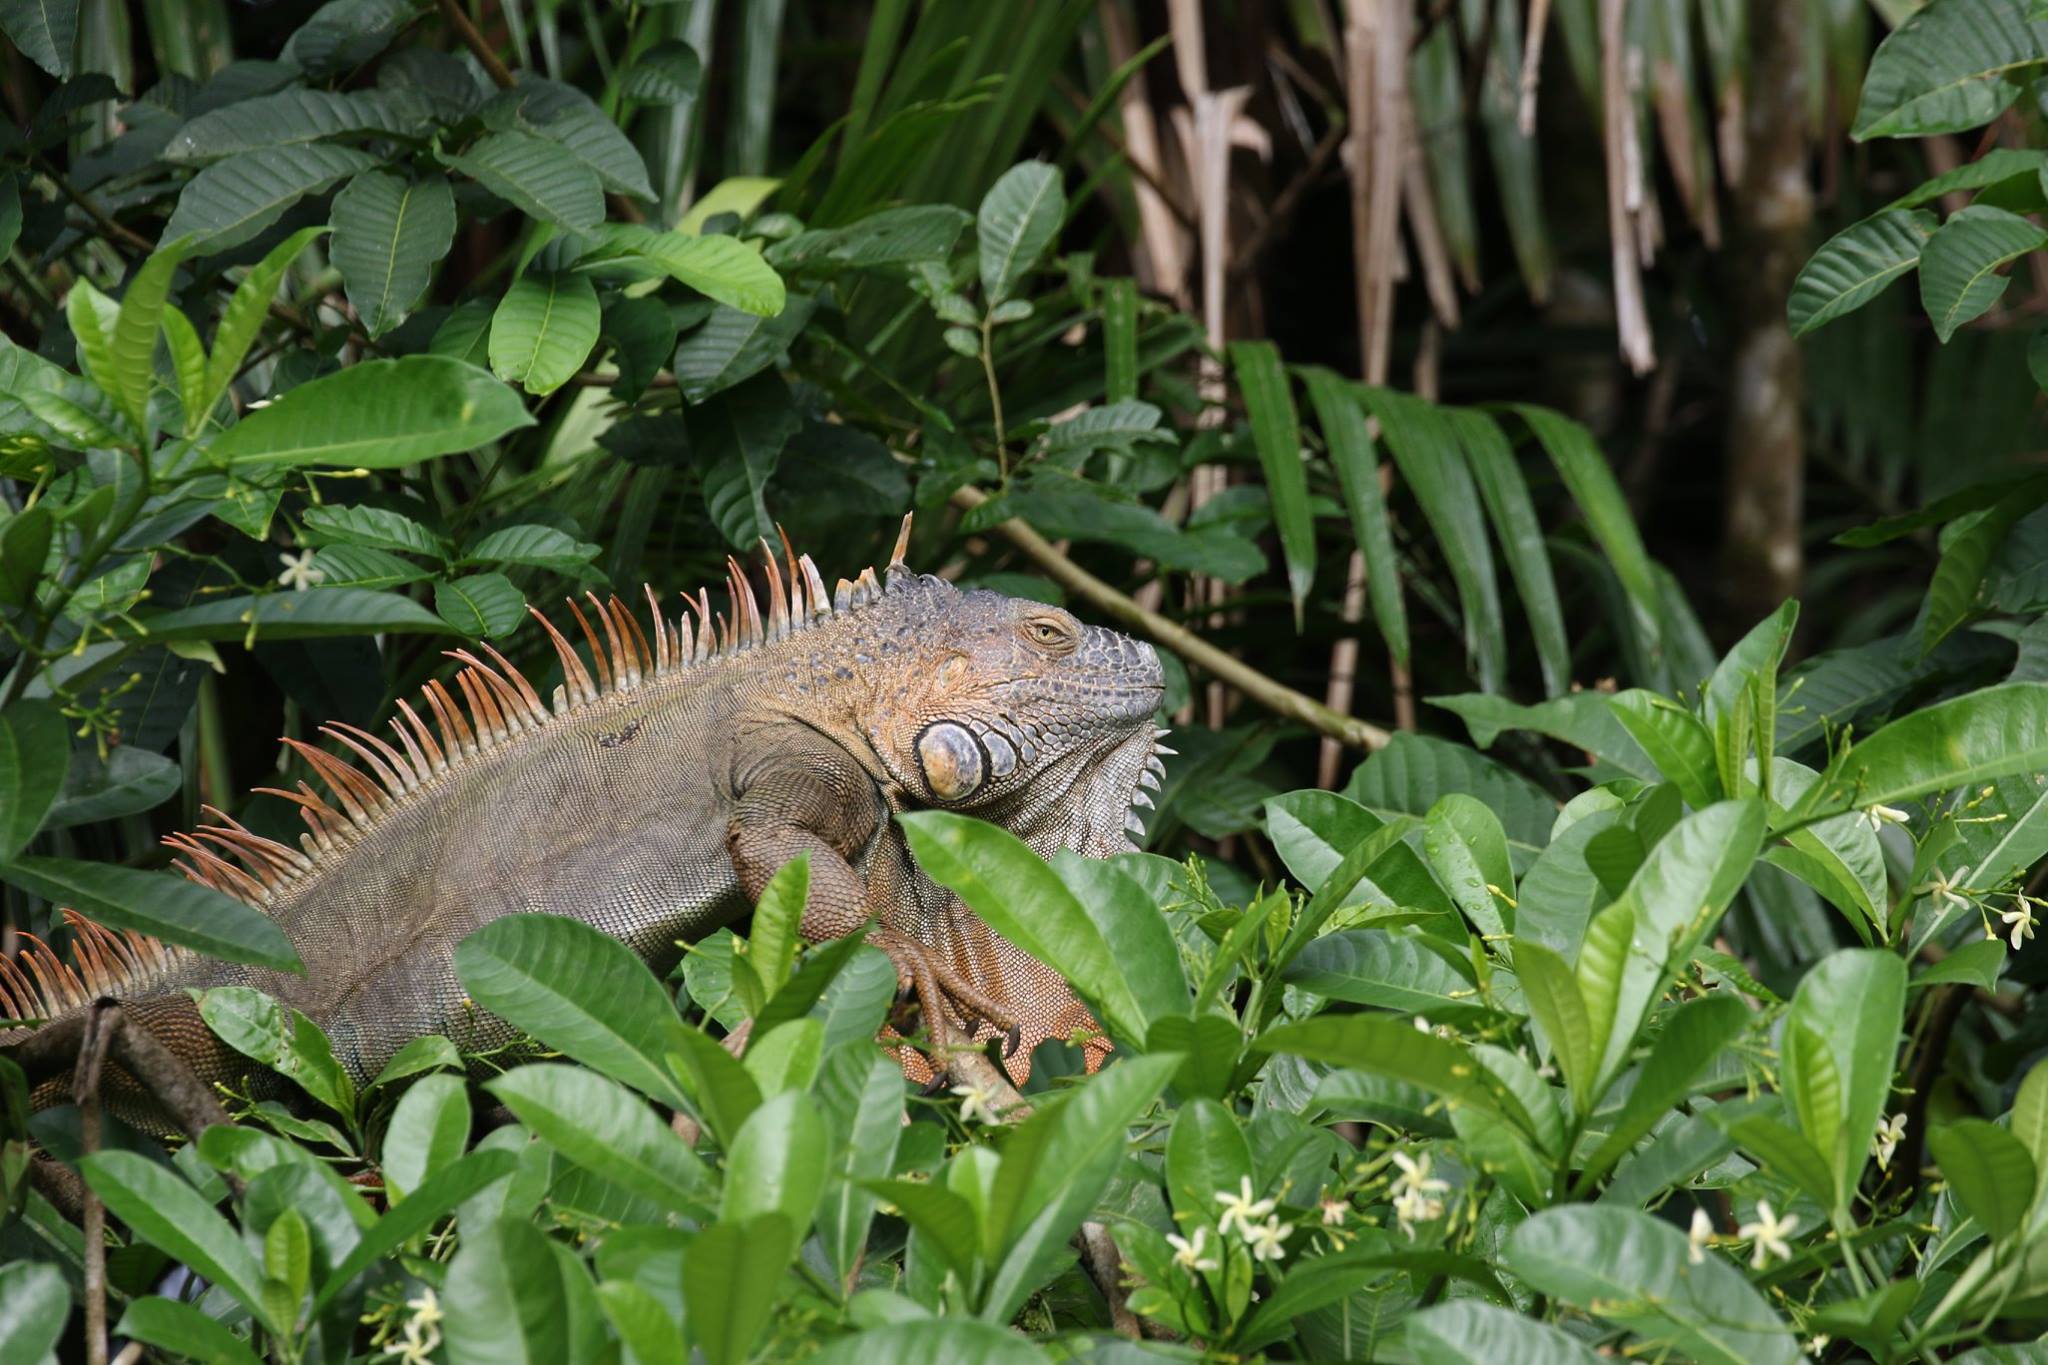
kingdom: Animalia
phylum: Chordata
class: Squamata
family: Iguanidae
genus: Iguana
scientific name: Iguana iguana
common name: Green iguana
